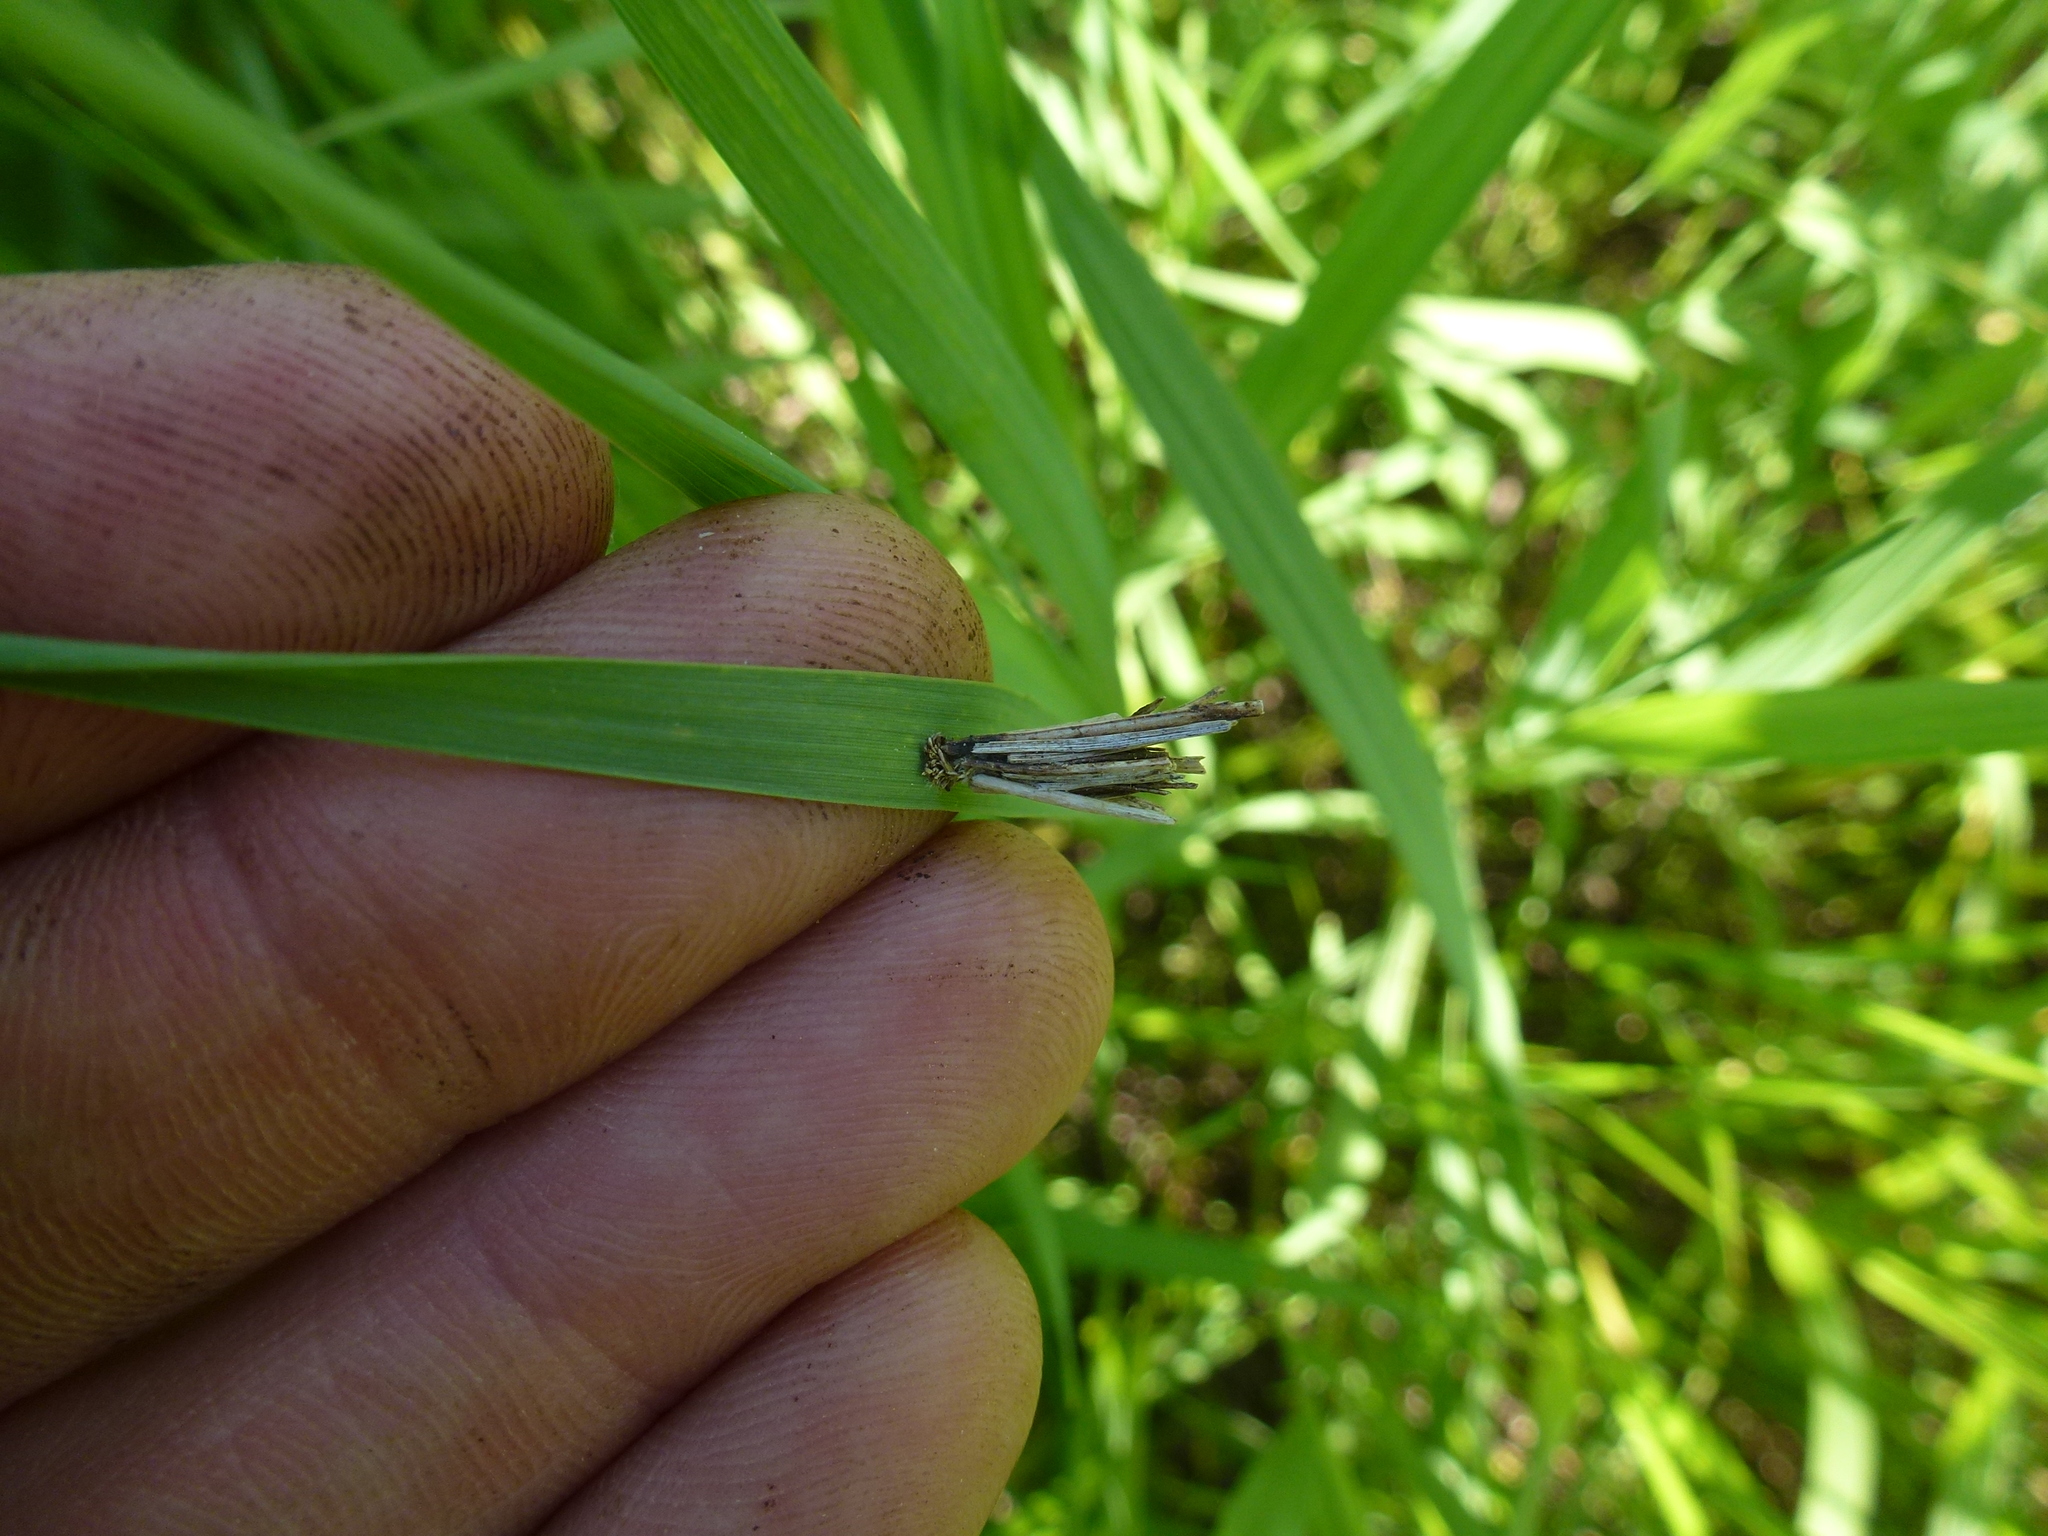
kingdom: Animalia
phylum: Arthropoda
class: Insecta
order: Lepidoptera
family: Psychidae
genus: Psyche
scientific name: Psyche casta
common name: Common sweep
